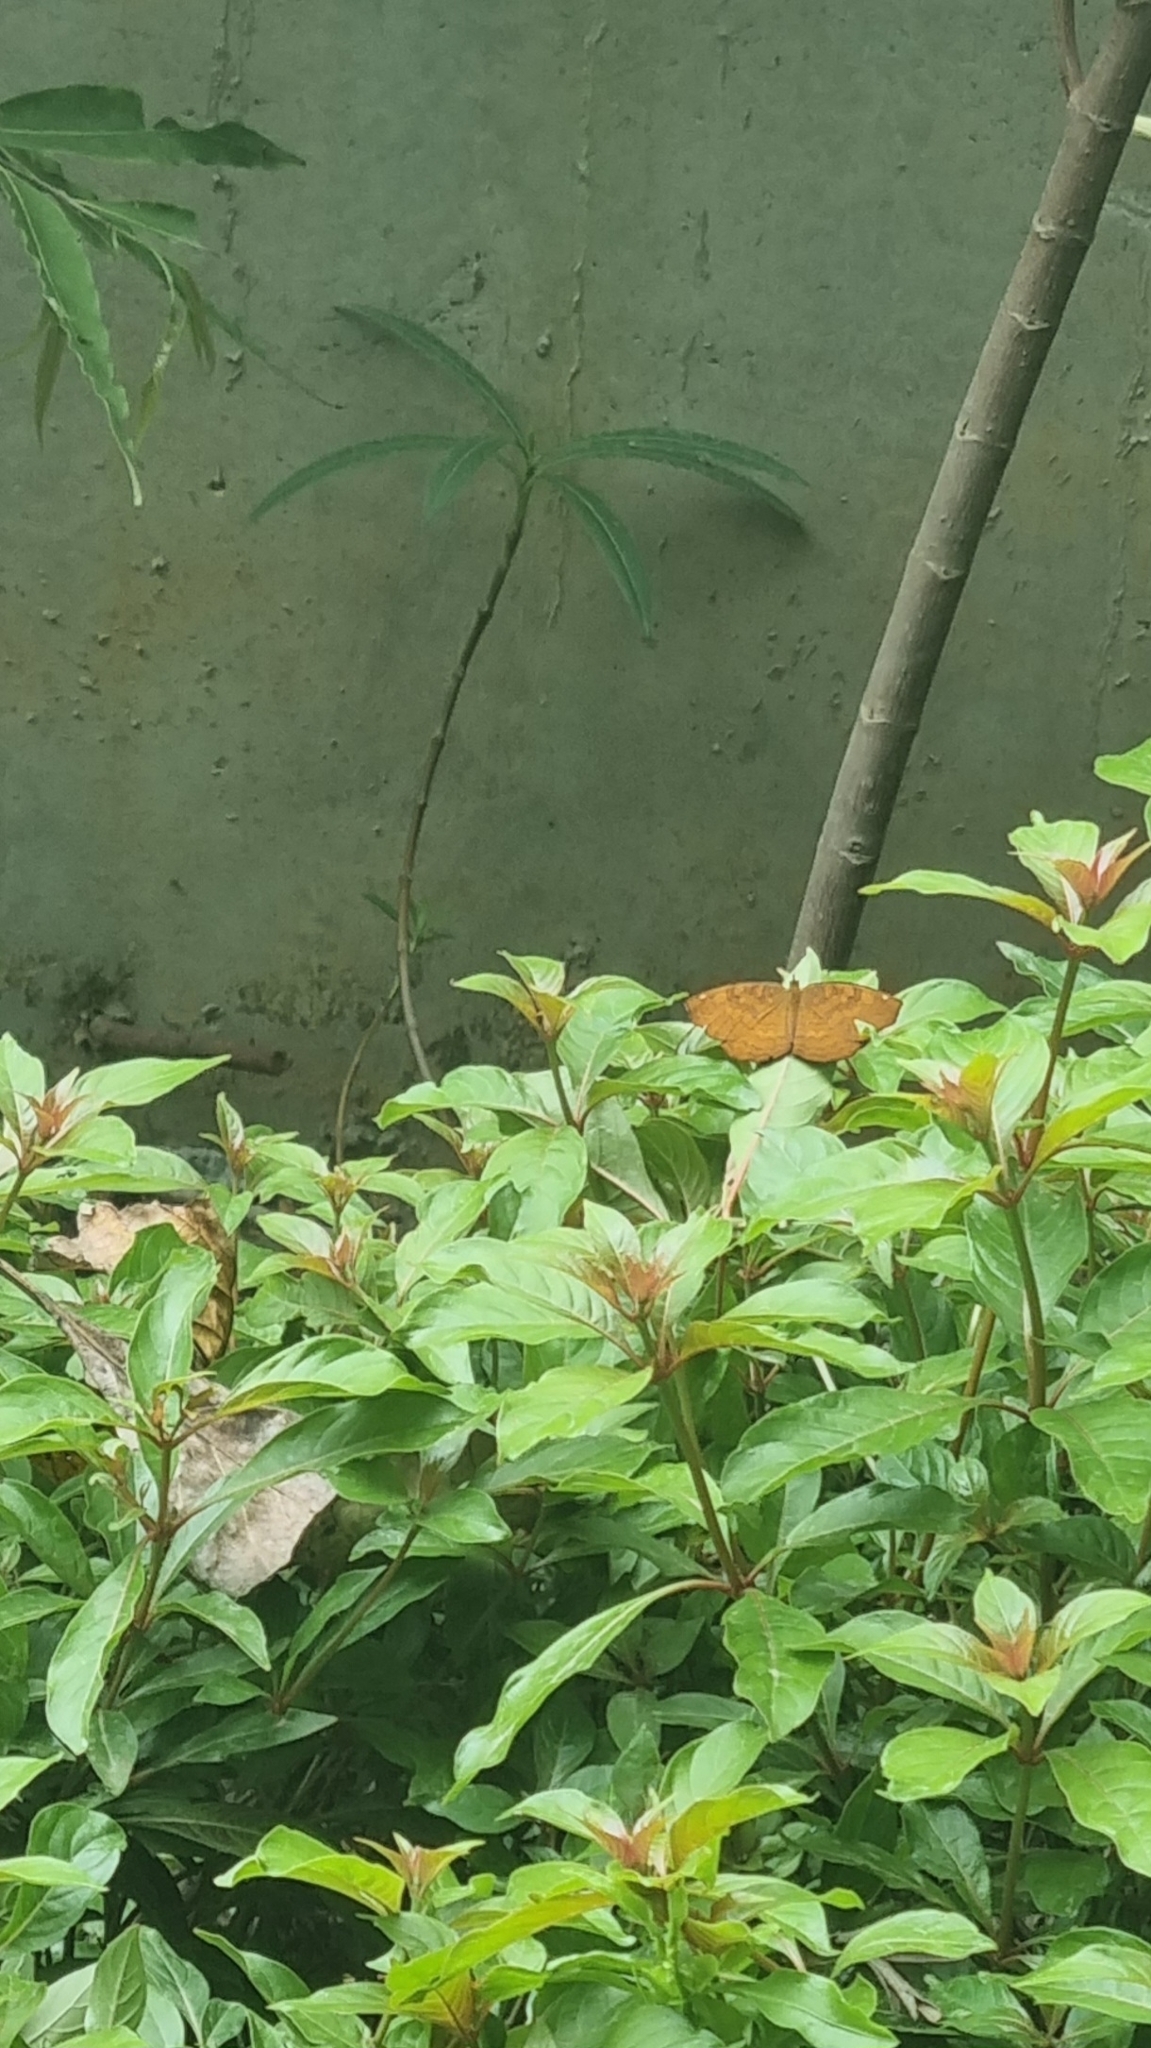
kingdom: Animalia
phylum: Arthropoda
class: Insecta
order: Lepidoptera
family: Nymphalidae
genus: Ariadne
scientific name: Ariadne merione
